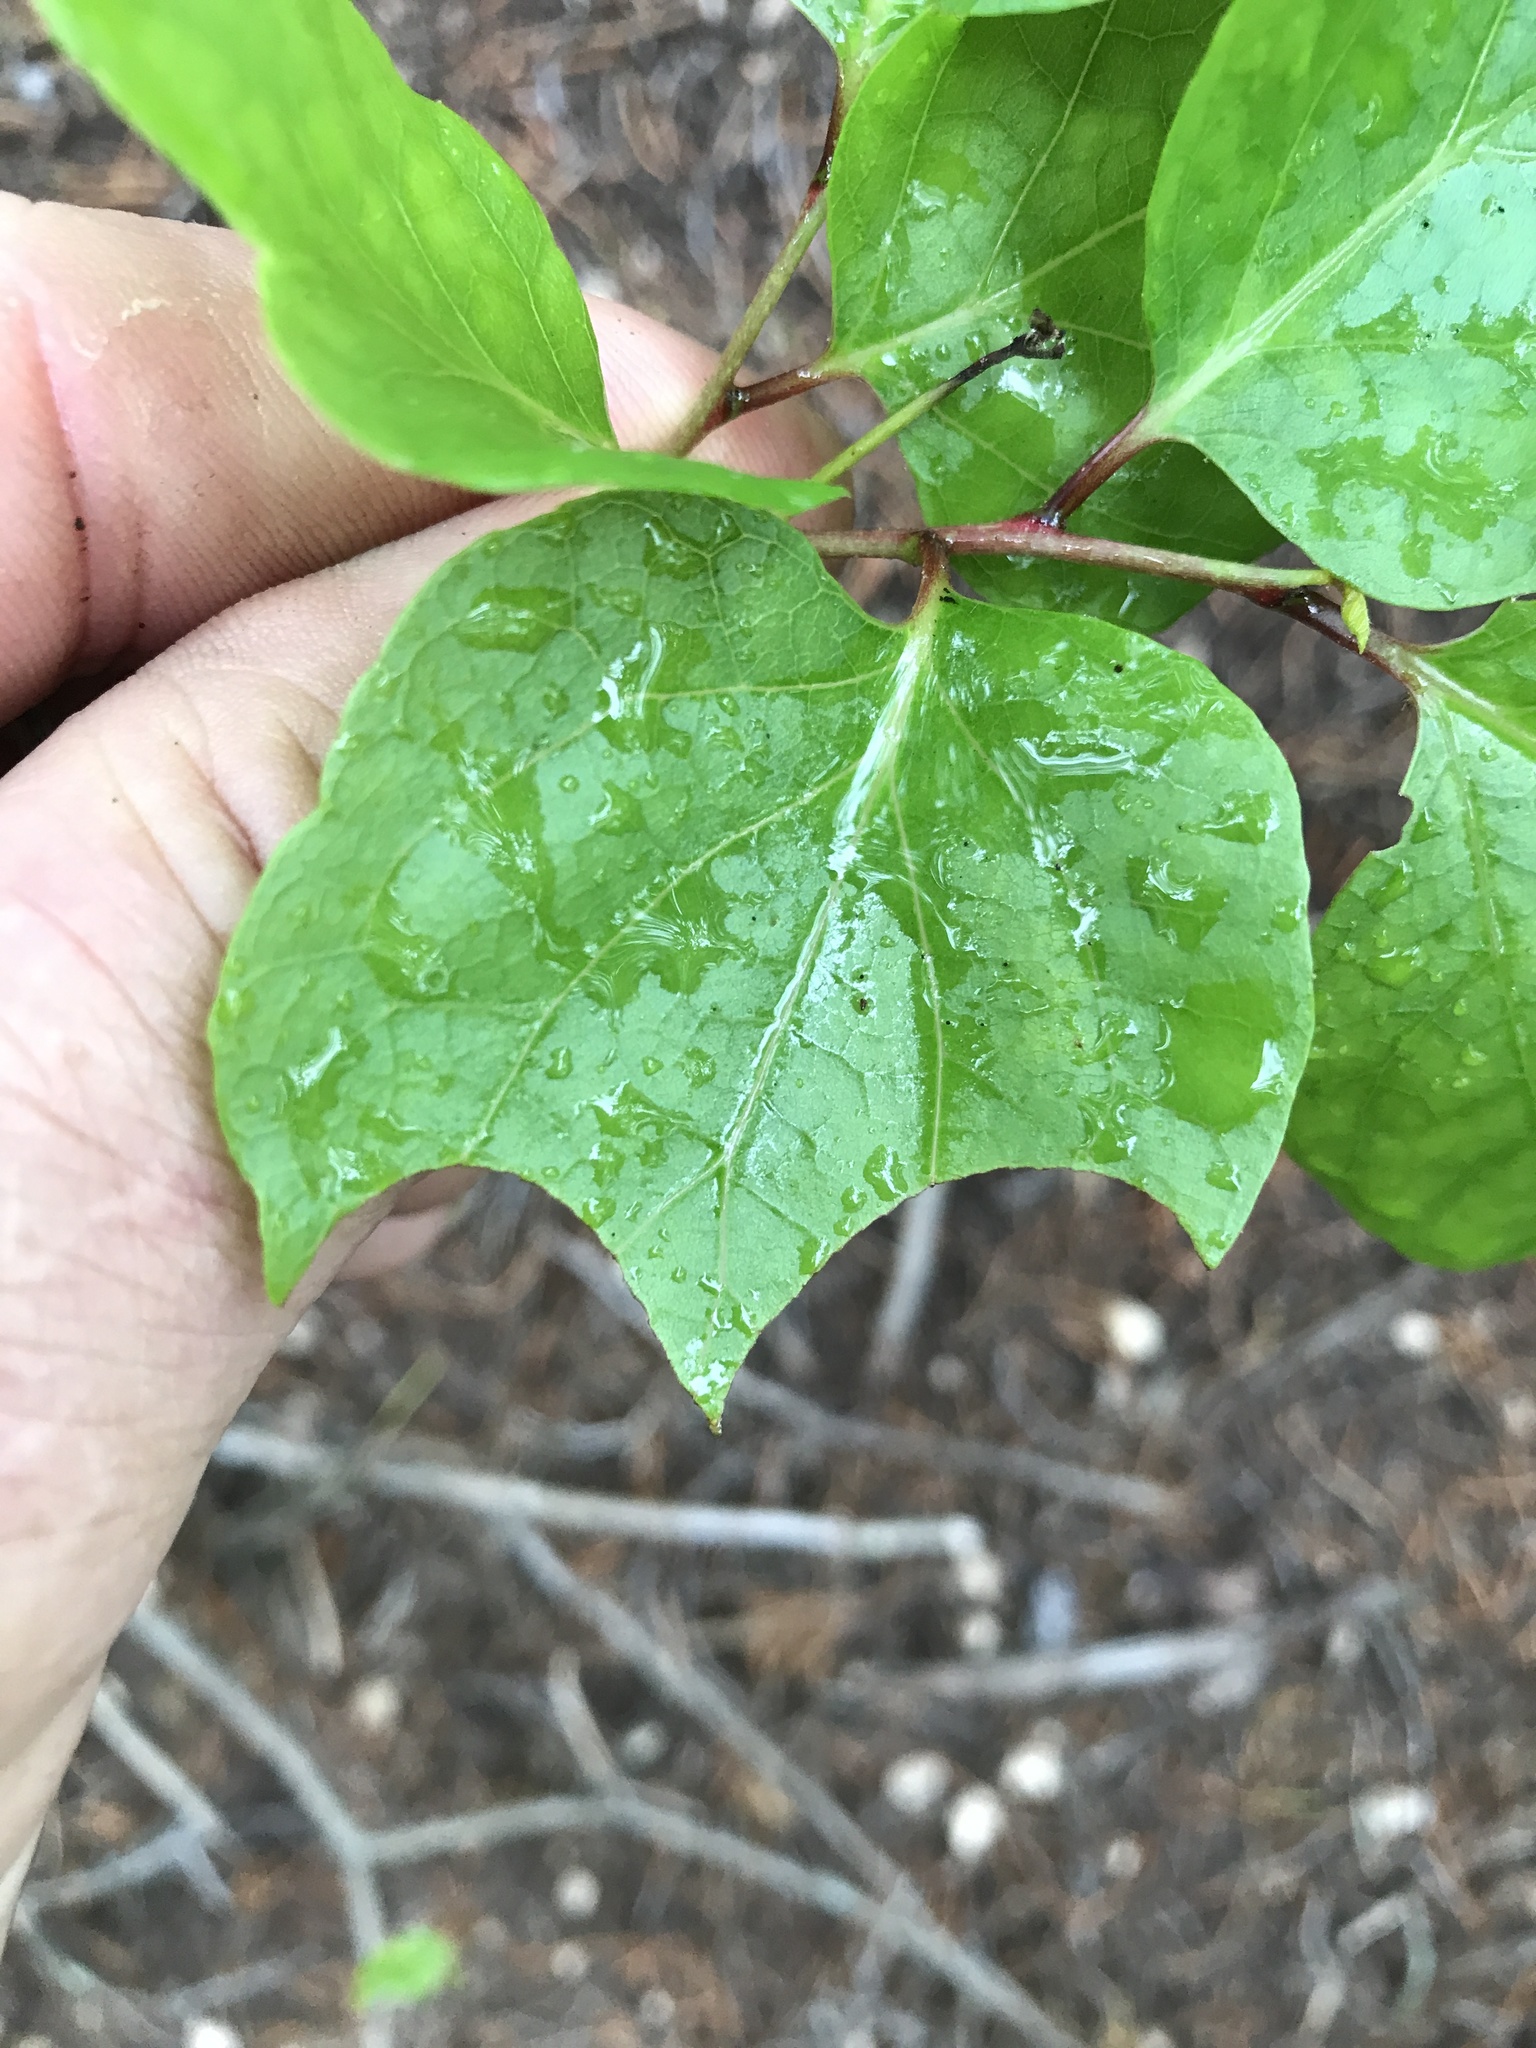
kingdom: Plantae
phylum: Tracheophyta
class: Magnoliopsida
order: Ericales
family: Styracaceae
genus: Styrax
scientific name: Styrax platanifolius
